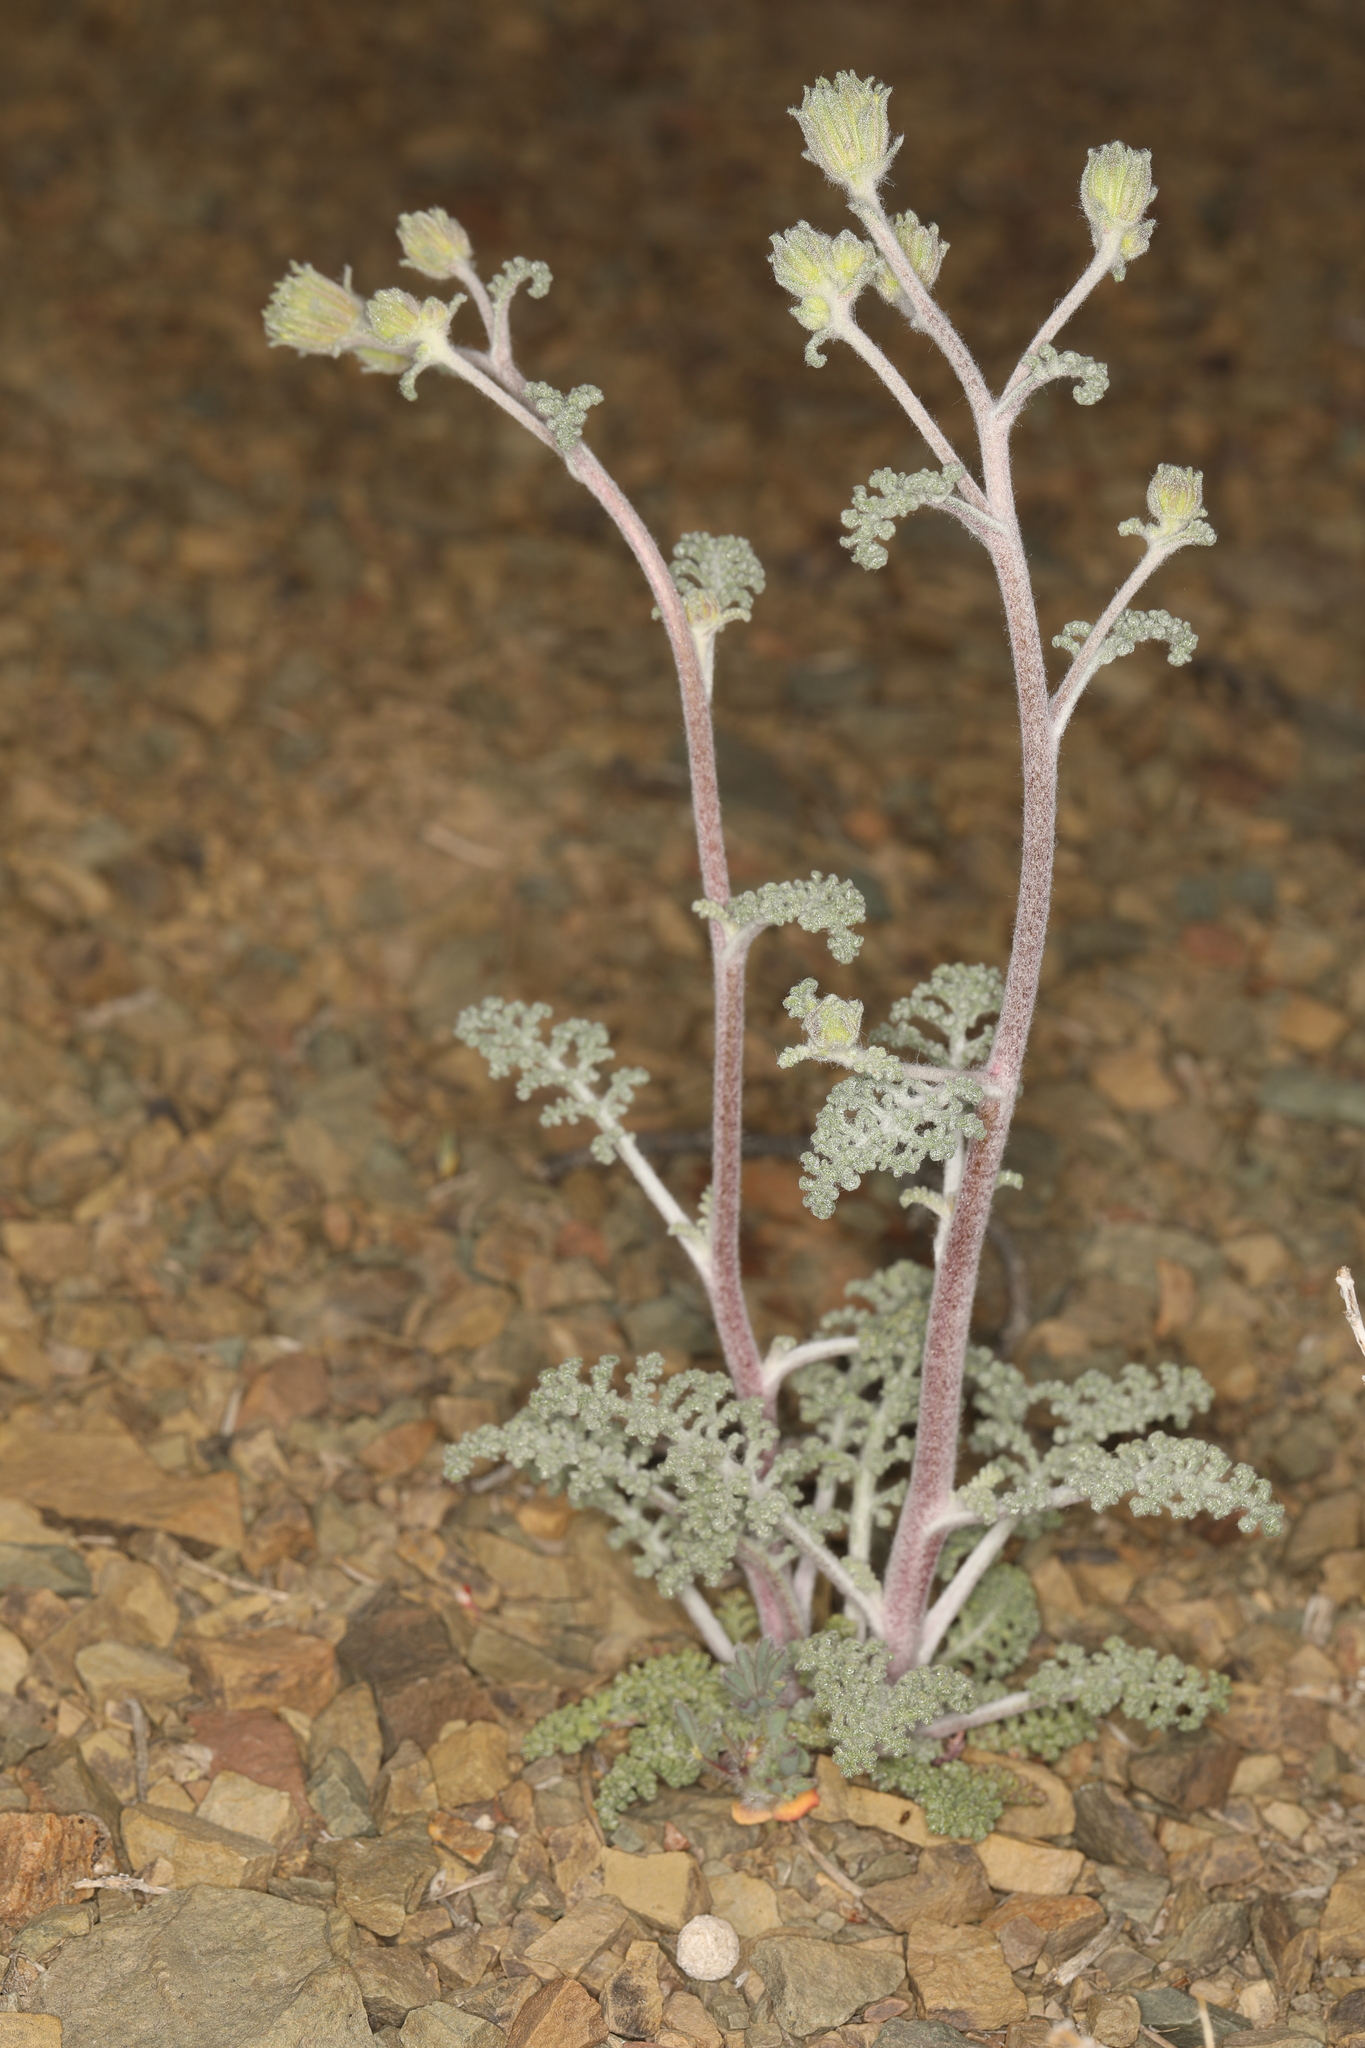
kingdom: Plantae
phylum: Tracheophyta
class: Magnoliopsida
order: Asterales
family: Asteraceae
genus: Chaenactis
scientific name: Chaenactis douglasii
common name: Hoary pincushion
